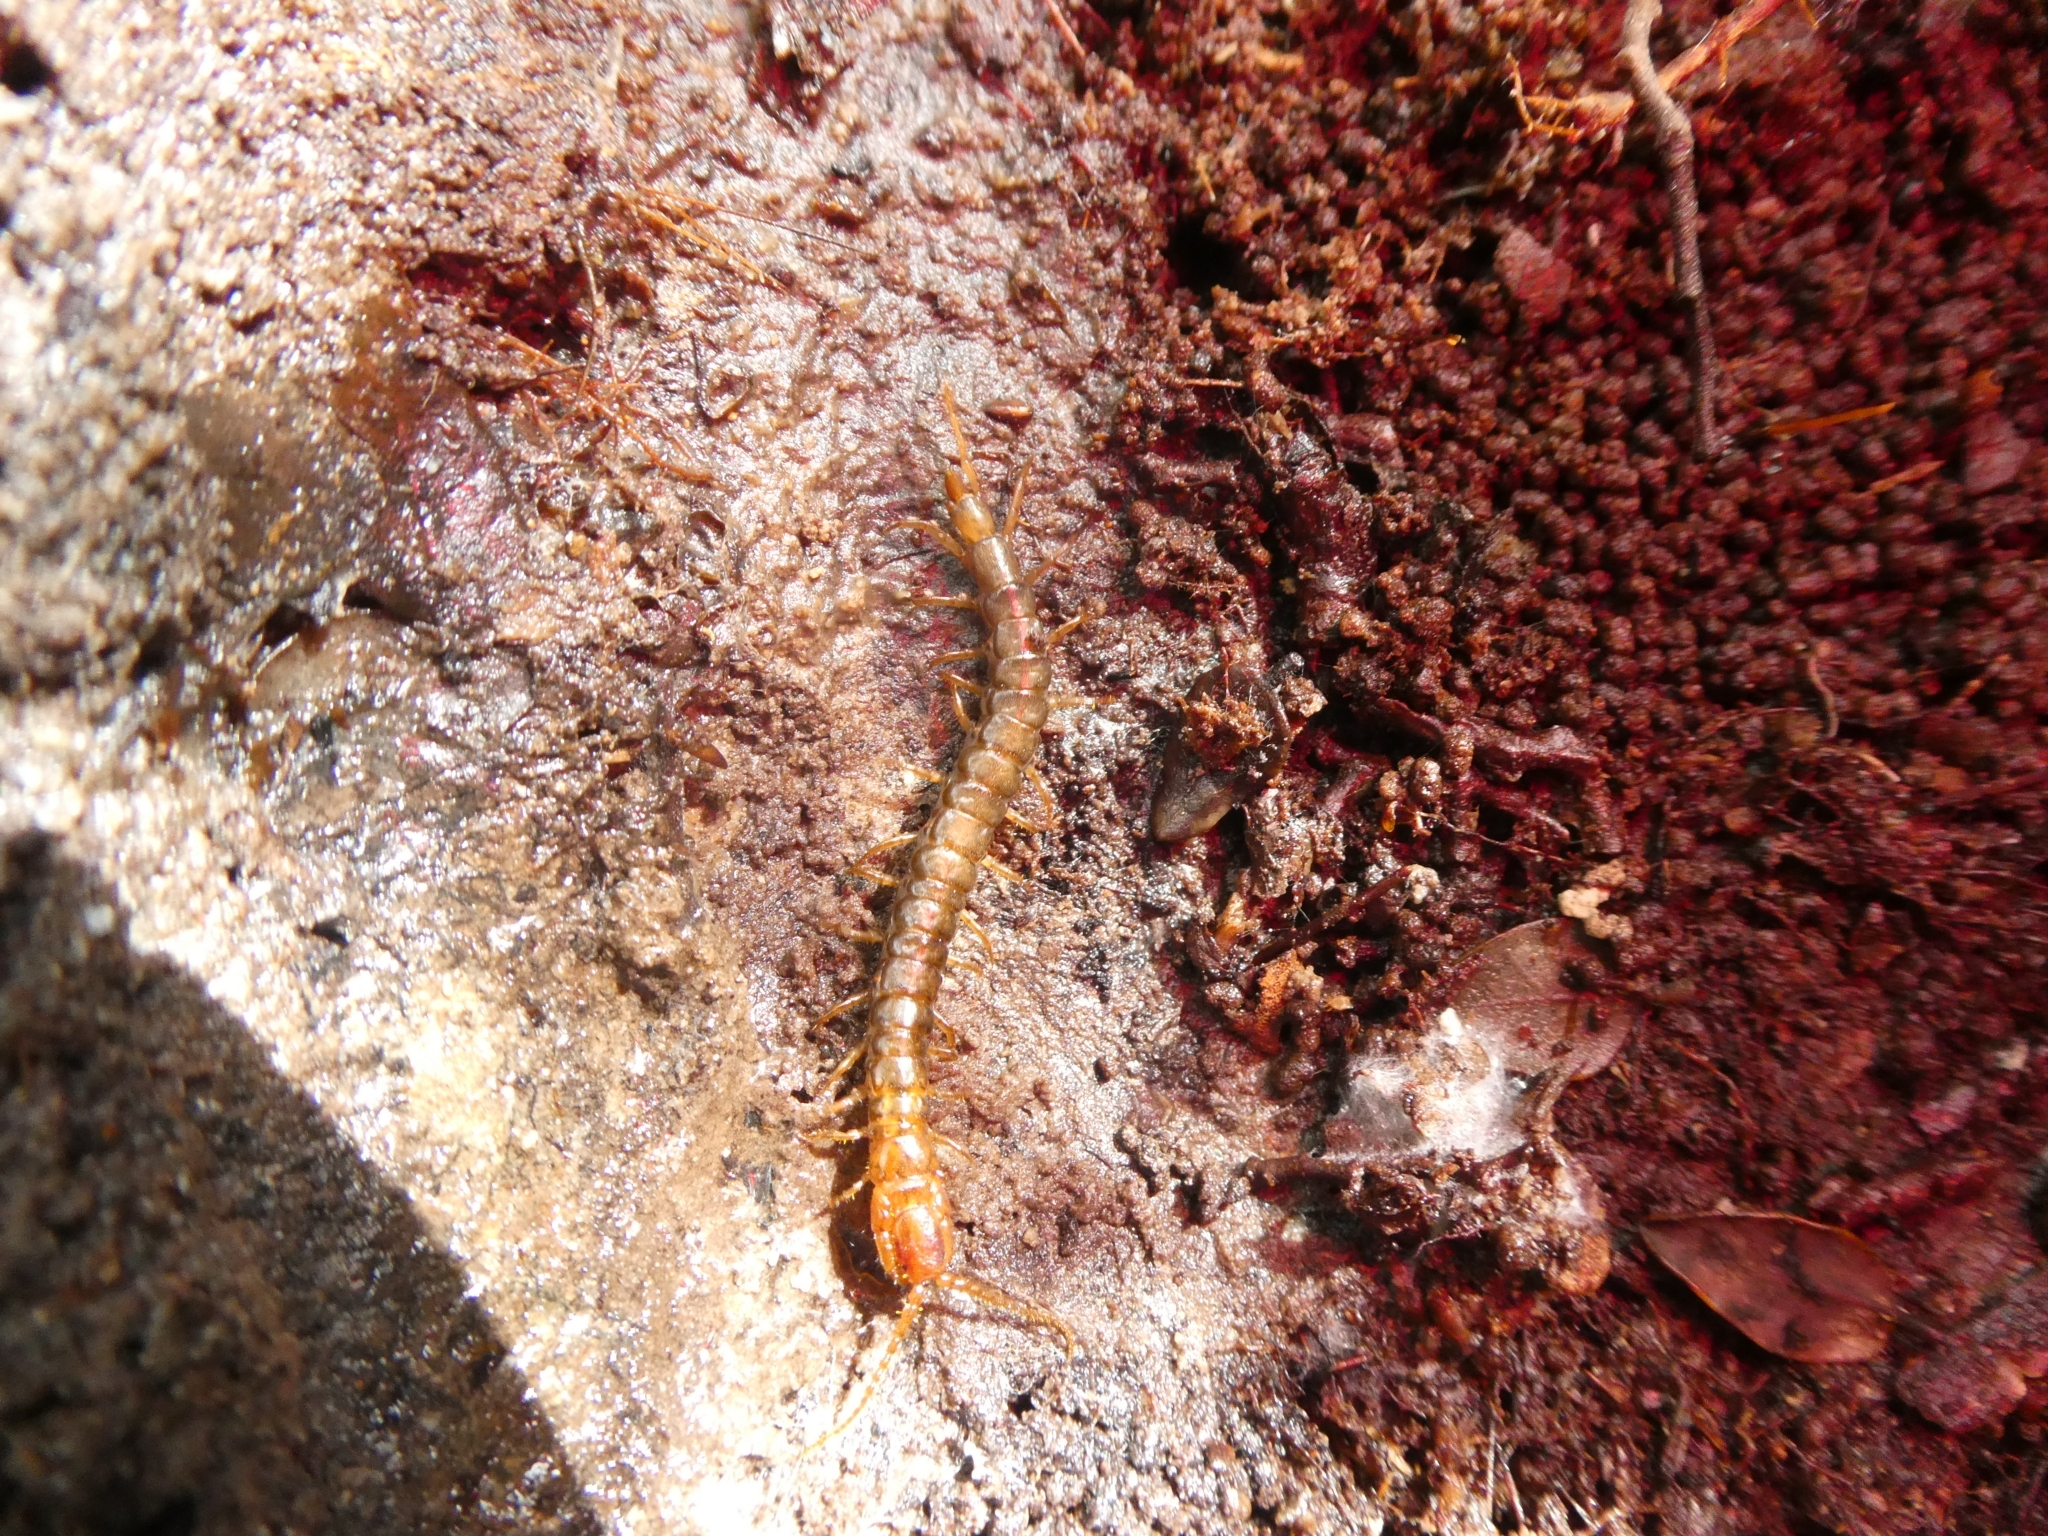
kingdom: Animalia
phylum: Arthropoda
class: Chilopoda
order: Craterostigmomorpha
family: Craterostigmidae
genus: Craterostigmus
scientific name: Craterostigmus crabilli
